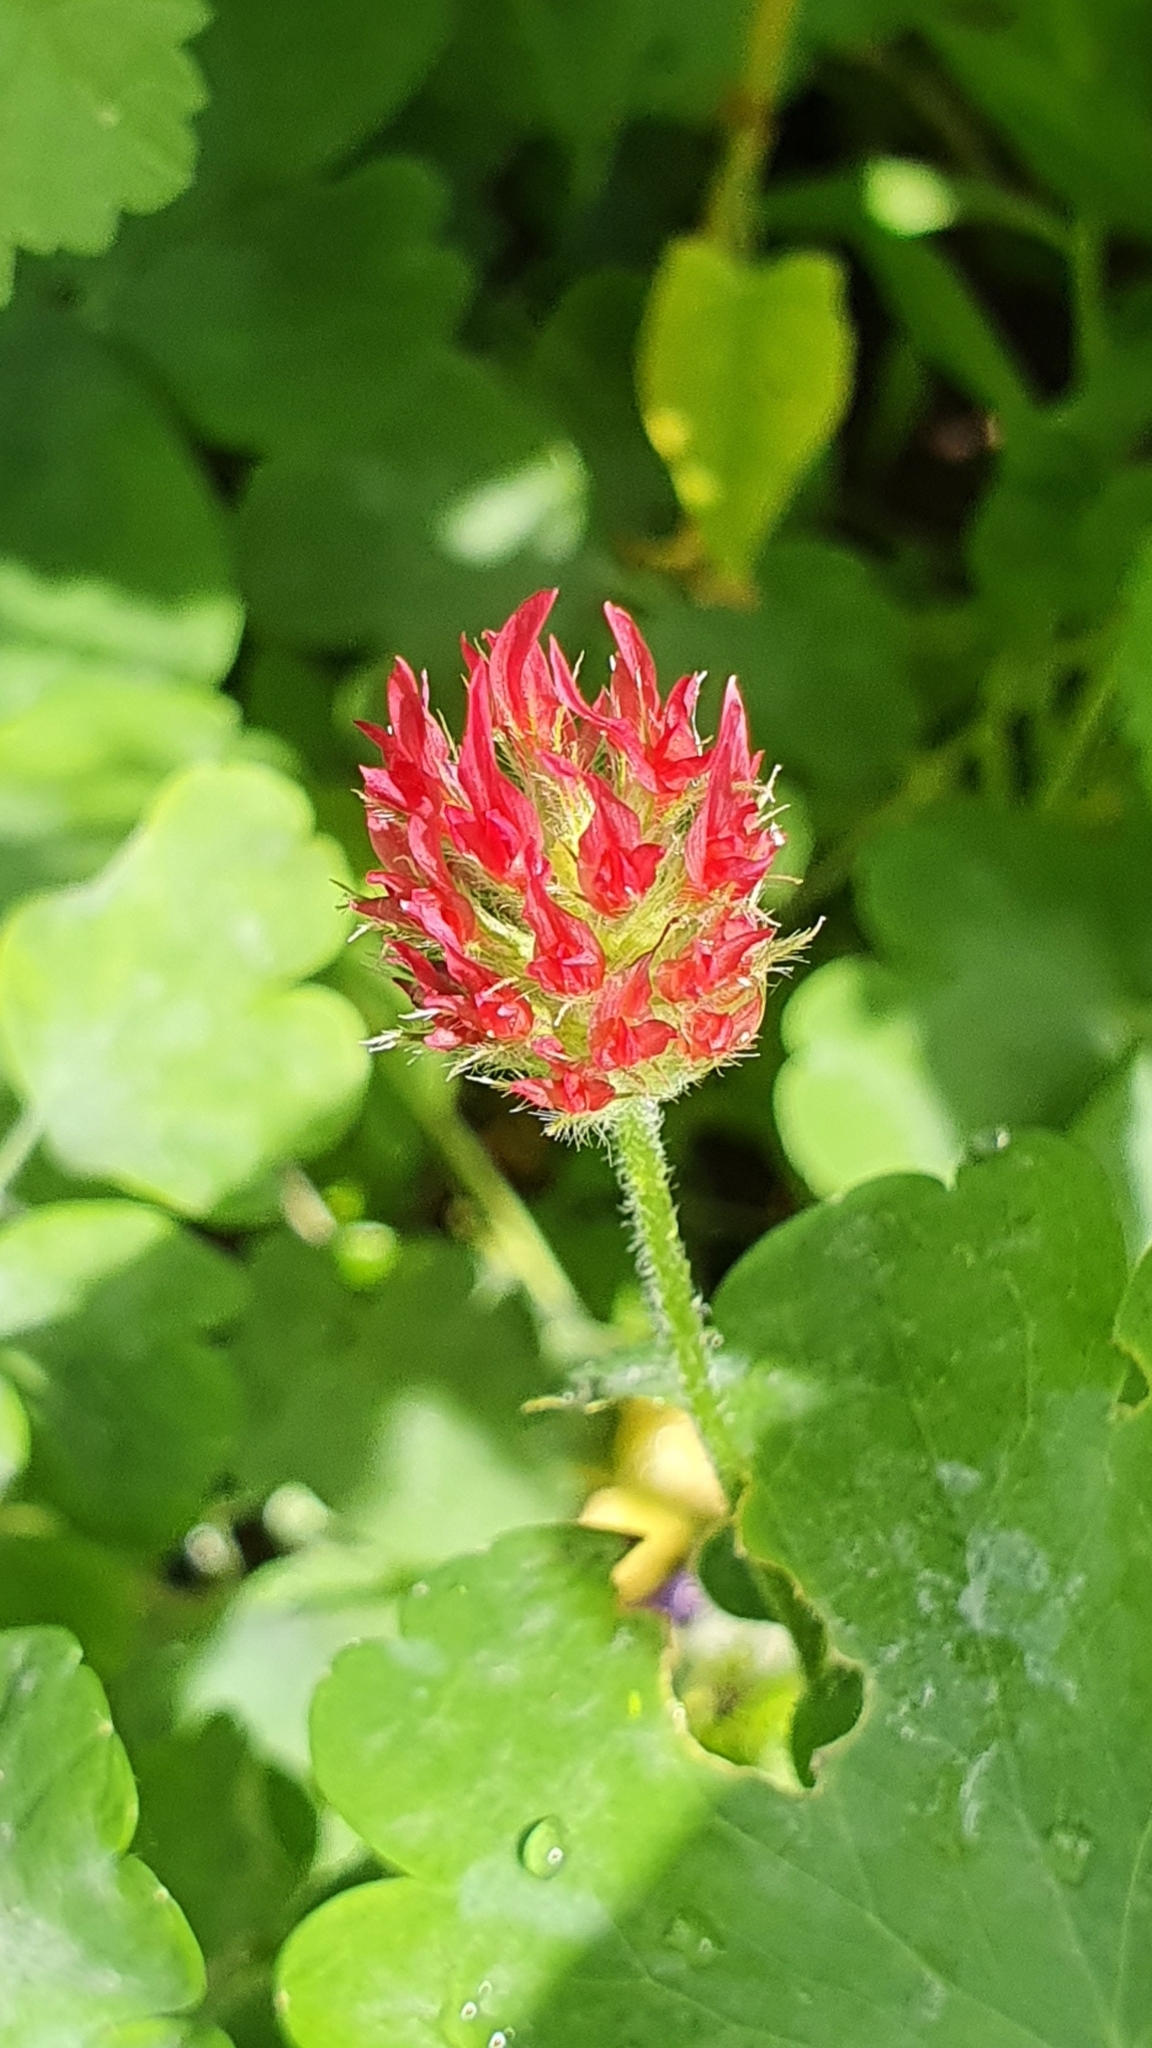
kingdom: Plantae
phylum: Tracheophyta
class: Magnoliopsida
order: Fabales
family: Fabaceae
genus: Trifolium
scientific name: Trifolium incarnatum
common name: Crimson clover
